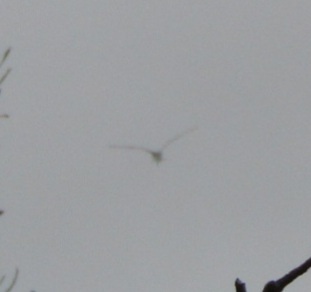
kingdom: Animalia
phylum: Chordata
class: Aves
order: Charadriiformes
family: Laridae
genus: Sternula
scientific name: Sternula antillarum
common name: Least tern
